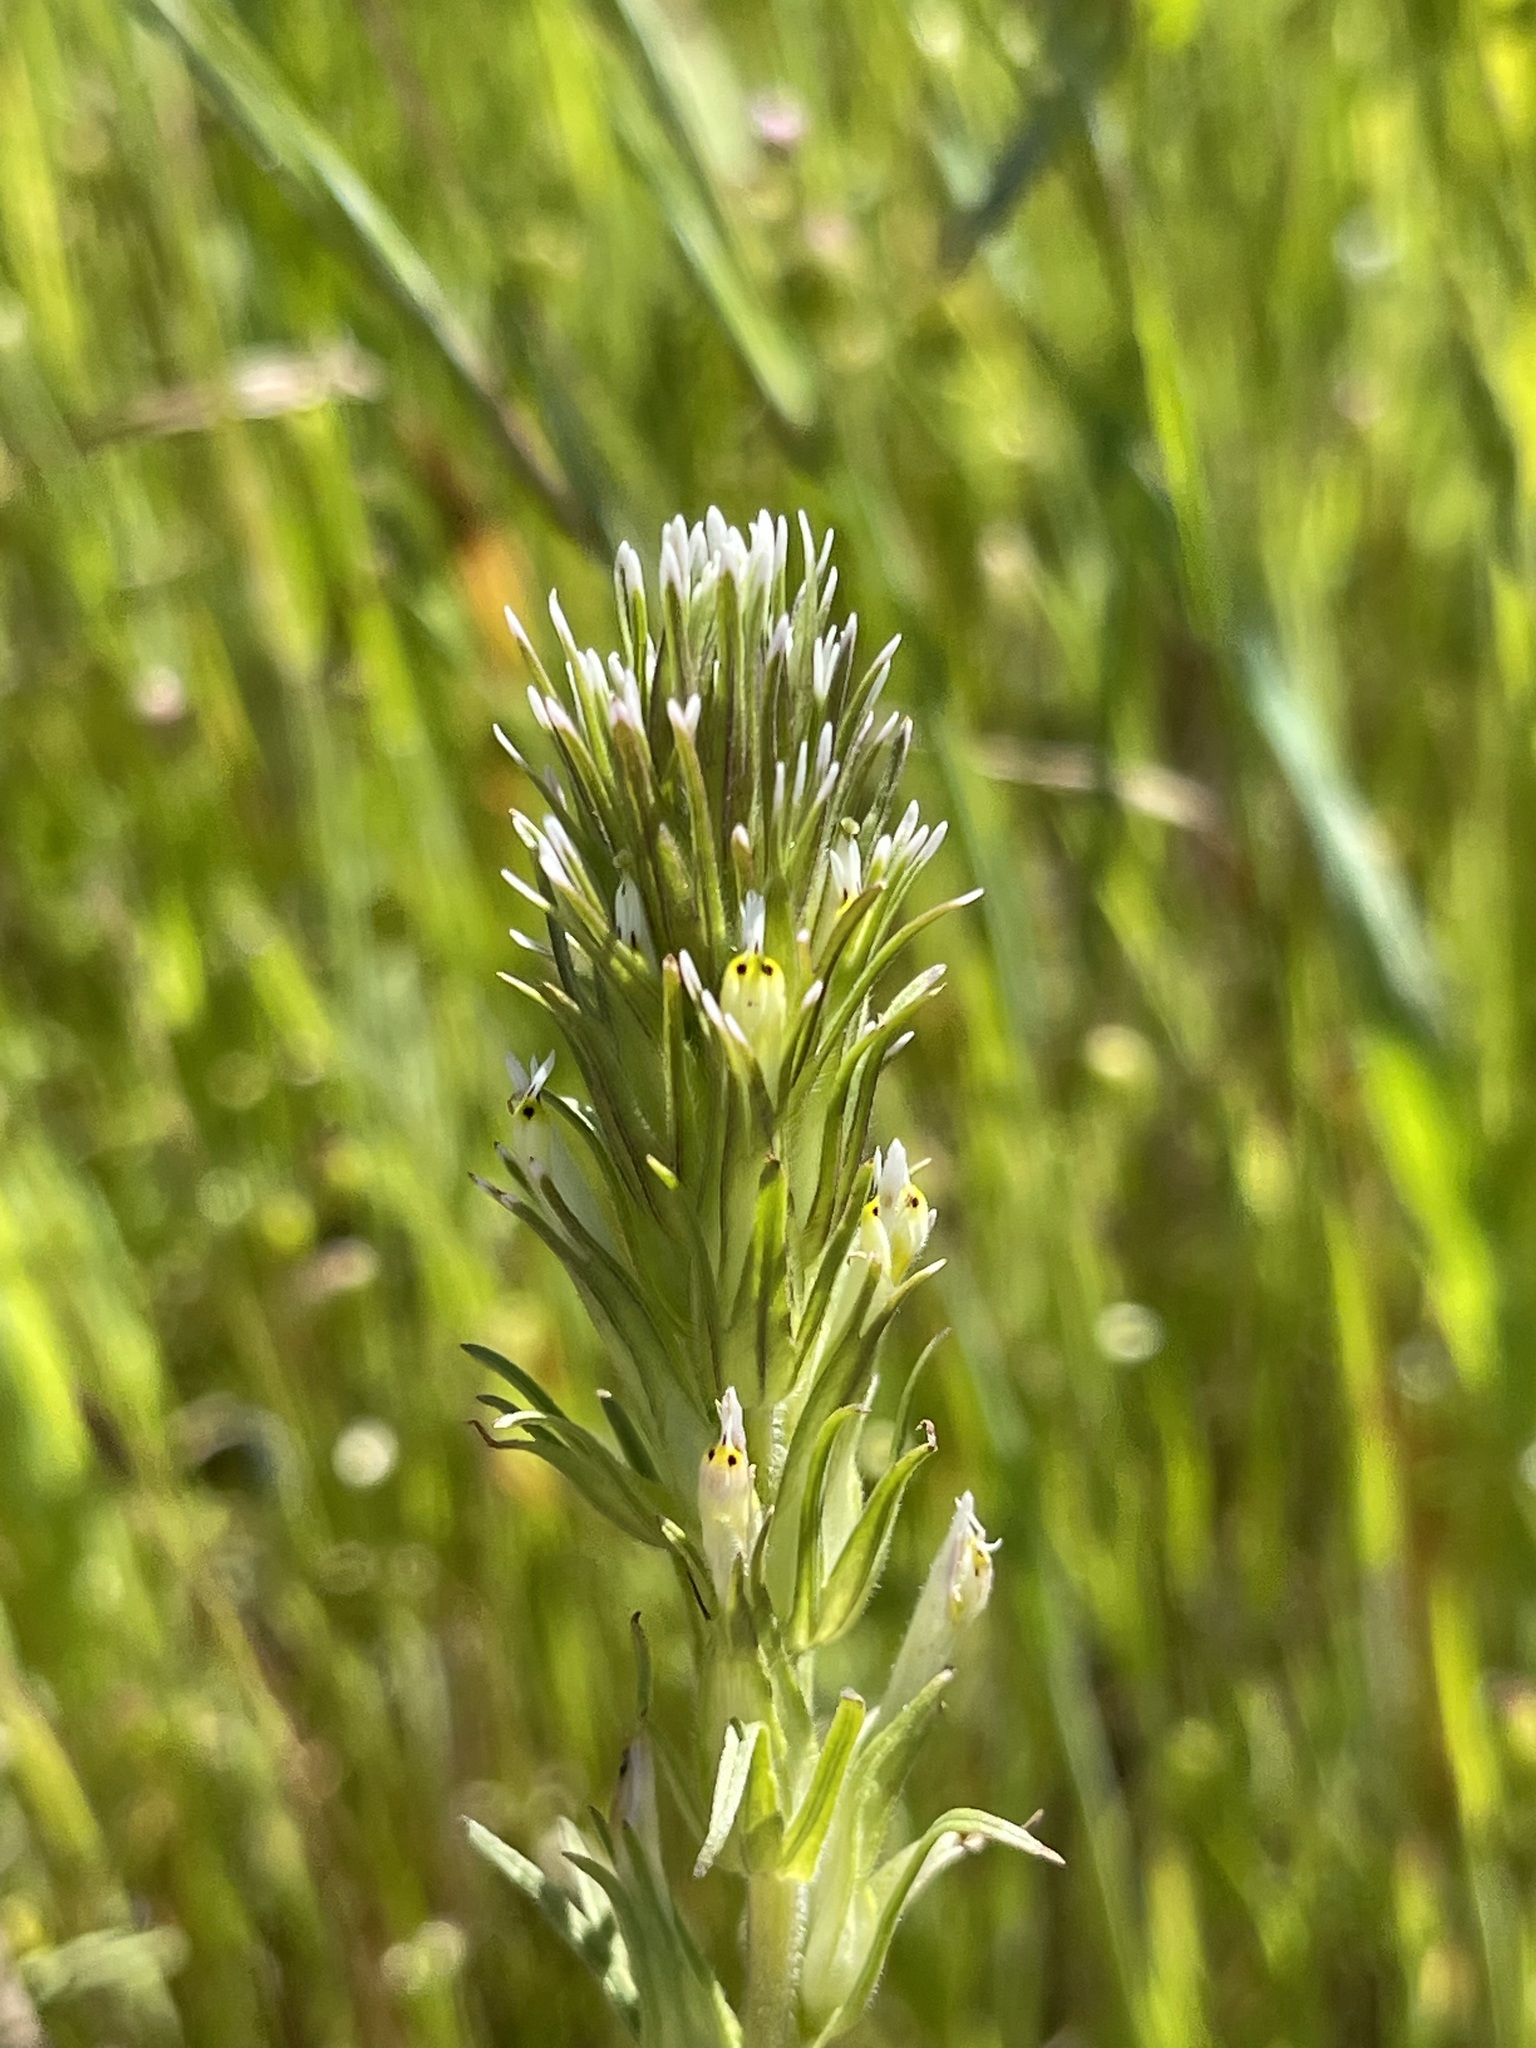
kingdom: Plantae
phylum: Tracheophyta
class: Magnoliopsida
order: Lamiales
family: Orobanchaceae
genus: Castilleja
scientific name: Castilleja attenuata
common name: Valley tassels
